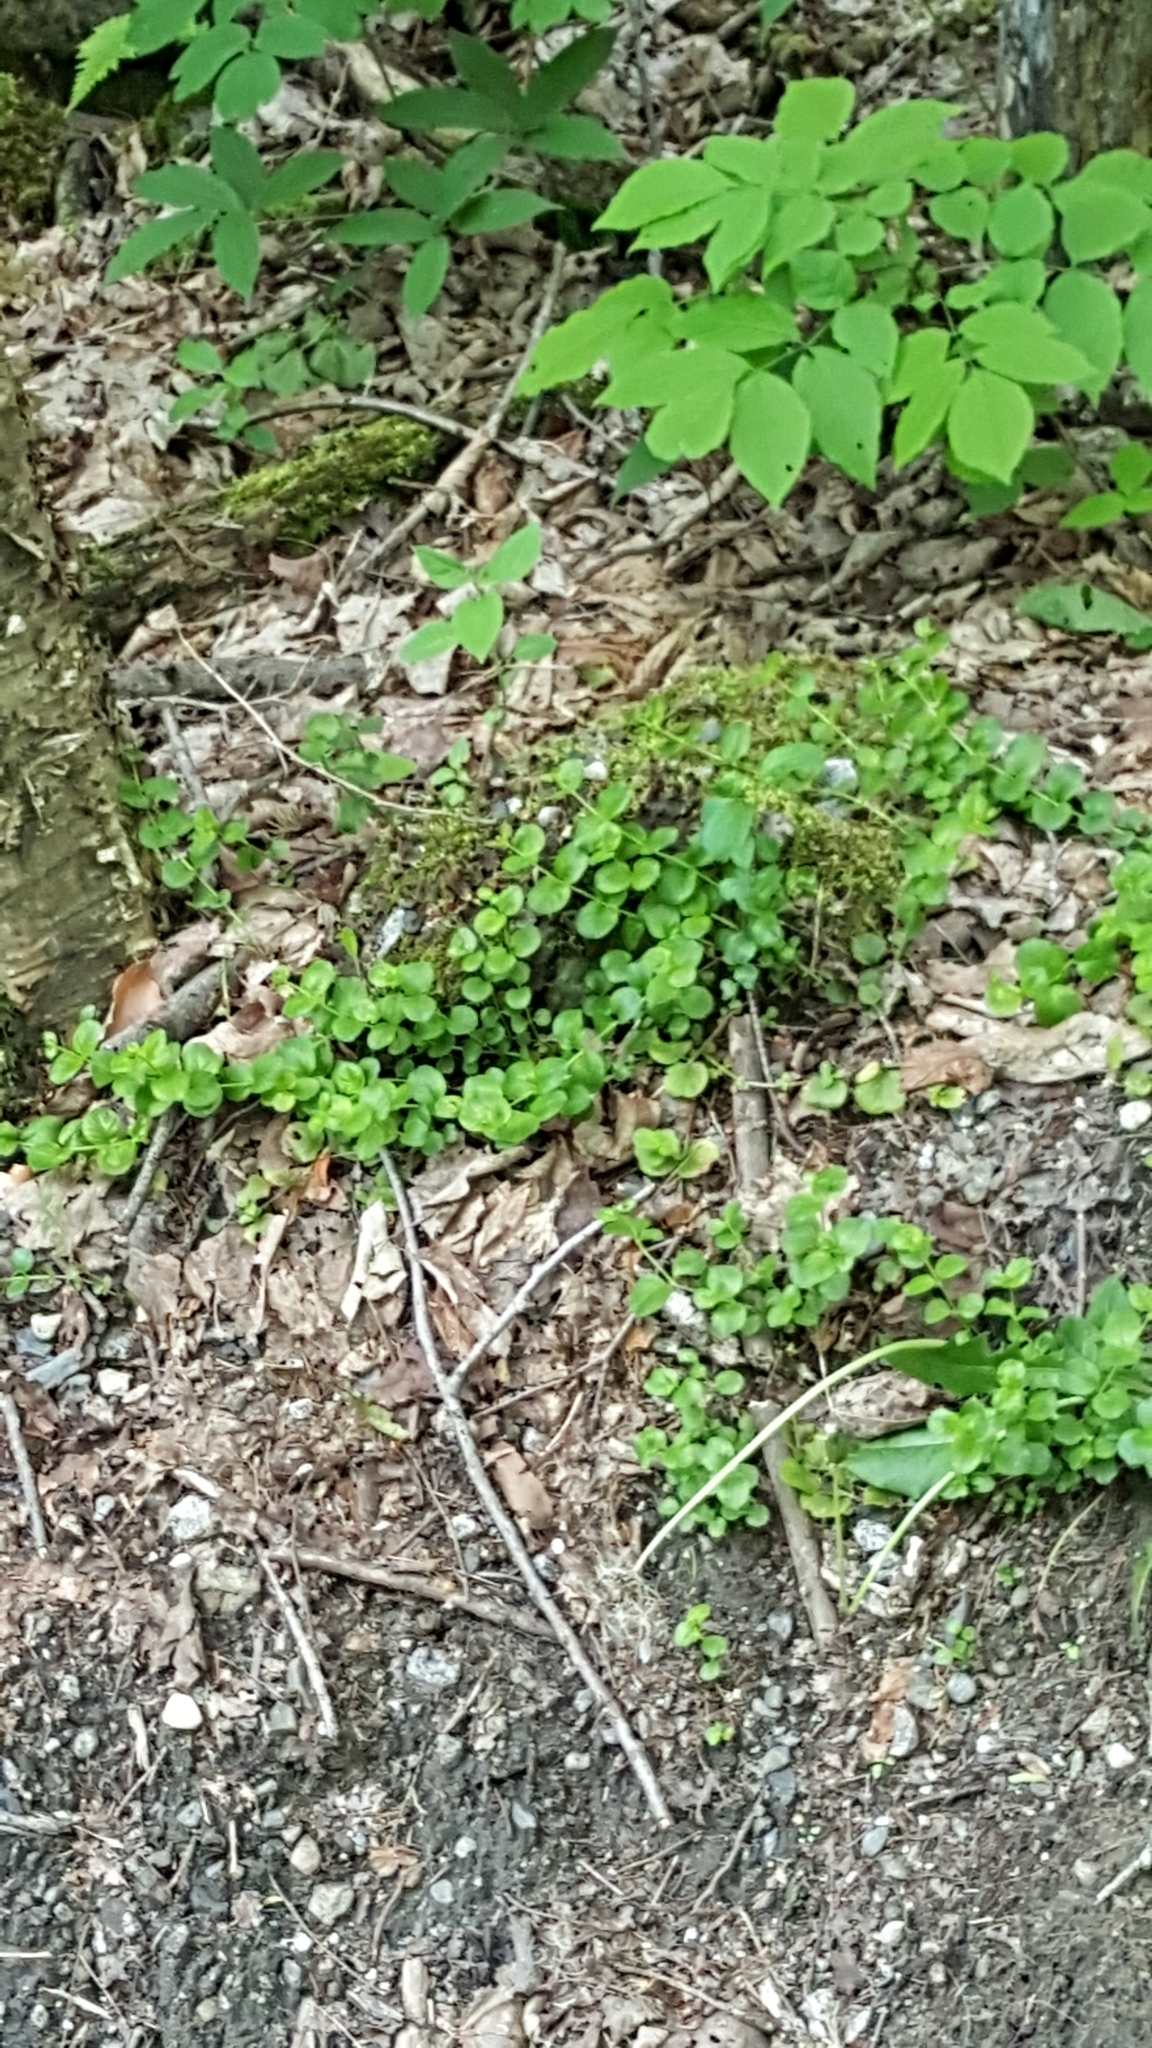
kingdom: Plantae
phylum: Tracheophyta
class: Magnoliopsida
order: Ericales
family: Primulaceae
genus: Lysimachia
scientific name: Lysimachia nummularia
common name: Moneywort
